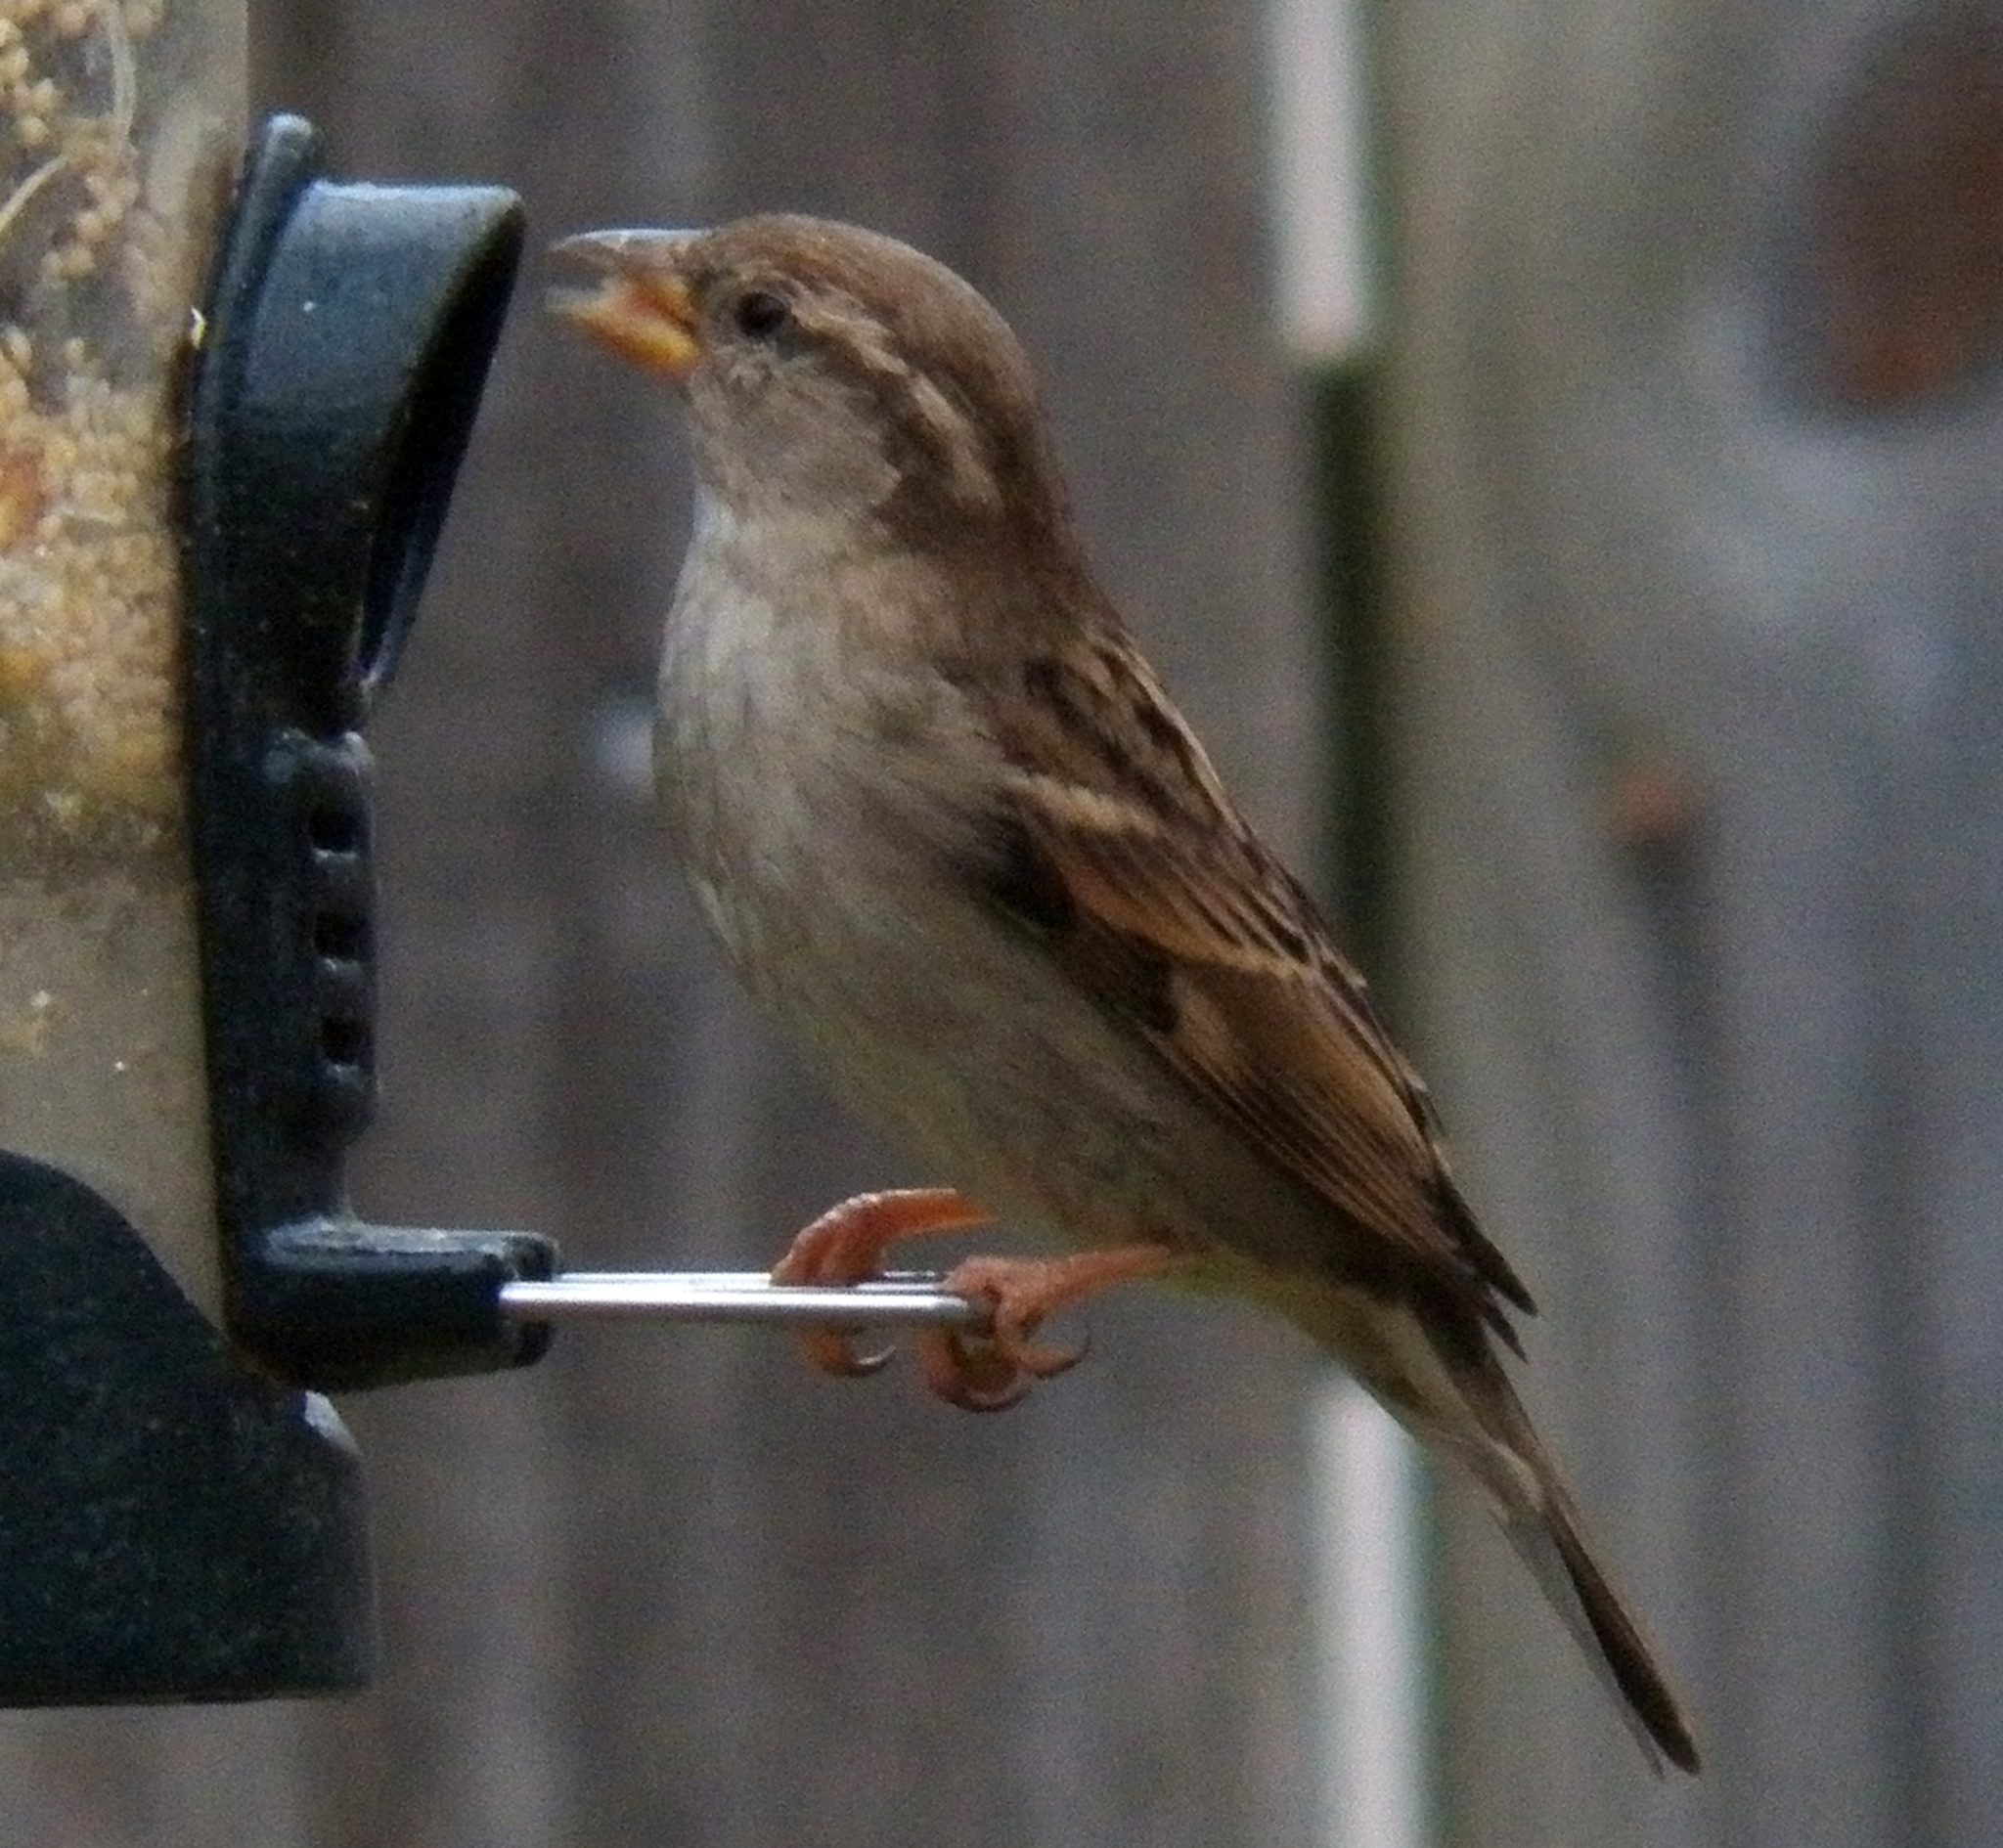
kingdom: Animalia
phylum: Chordata
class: Aves
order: Passeriformes
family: Passeridae
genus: Passer
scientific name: Passer domesticus
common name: House sparrow
